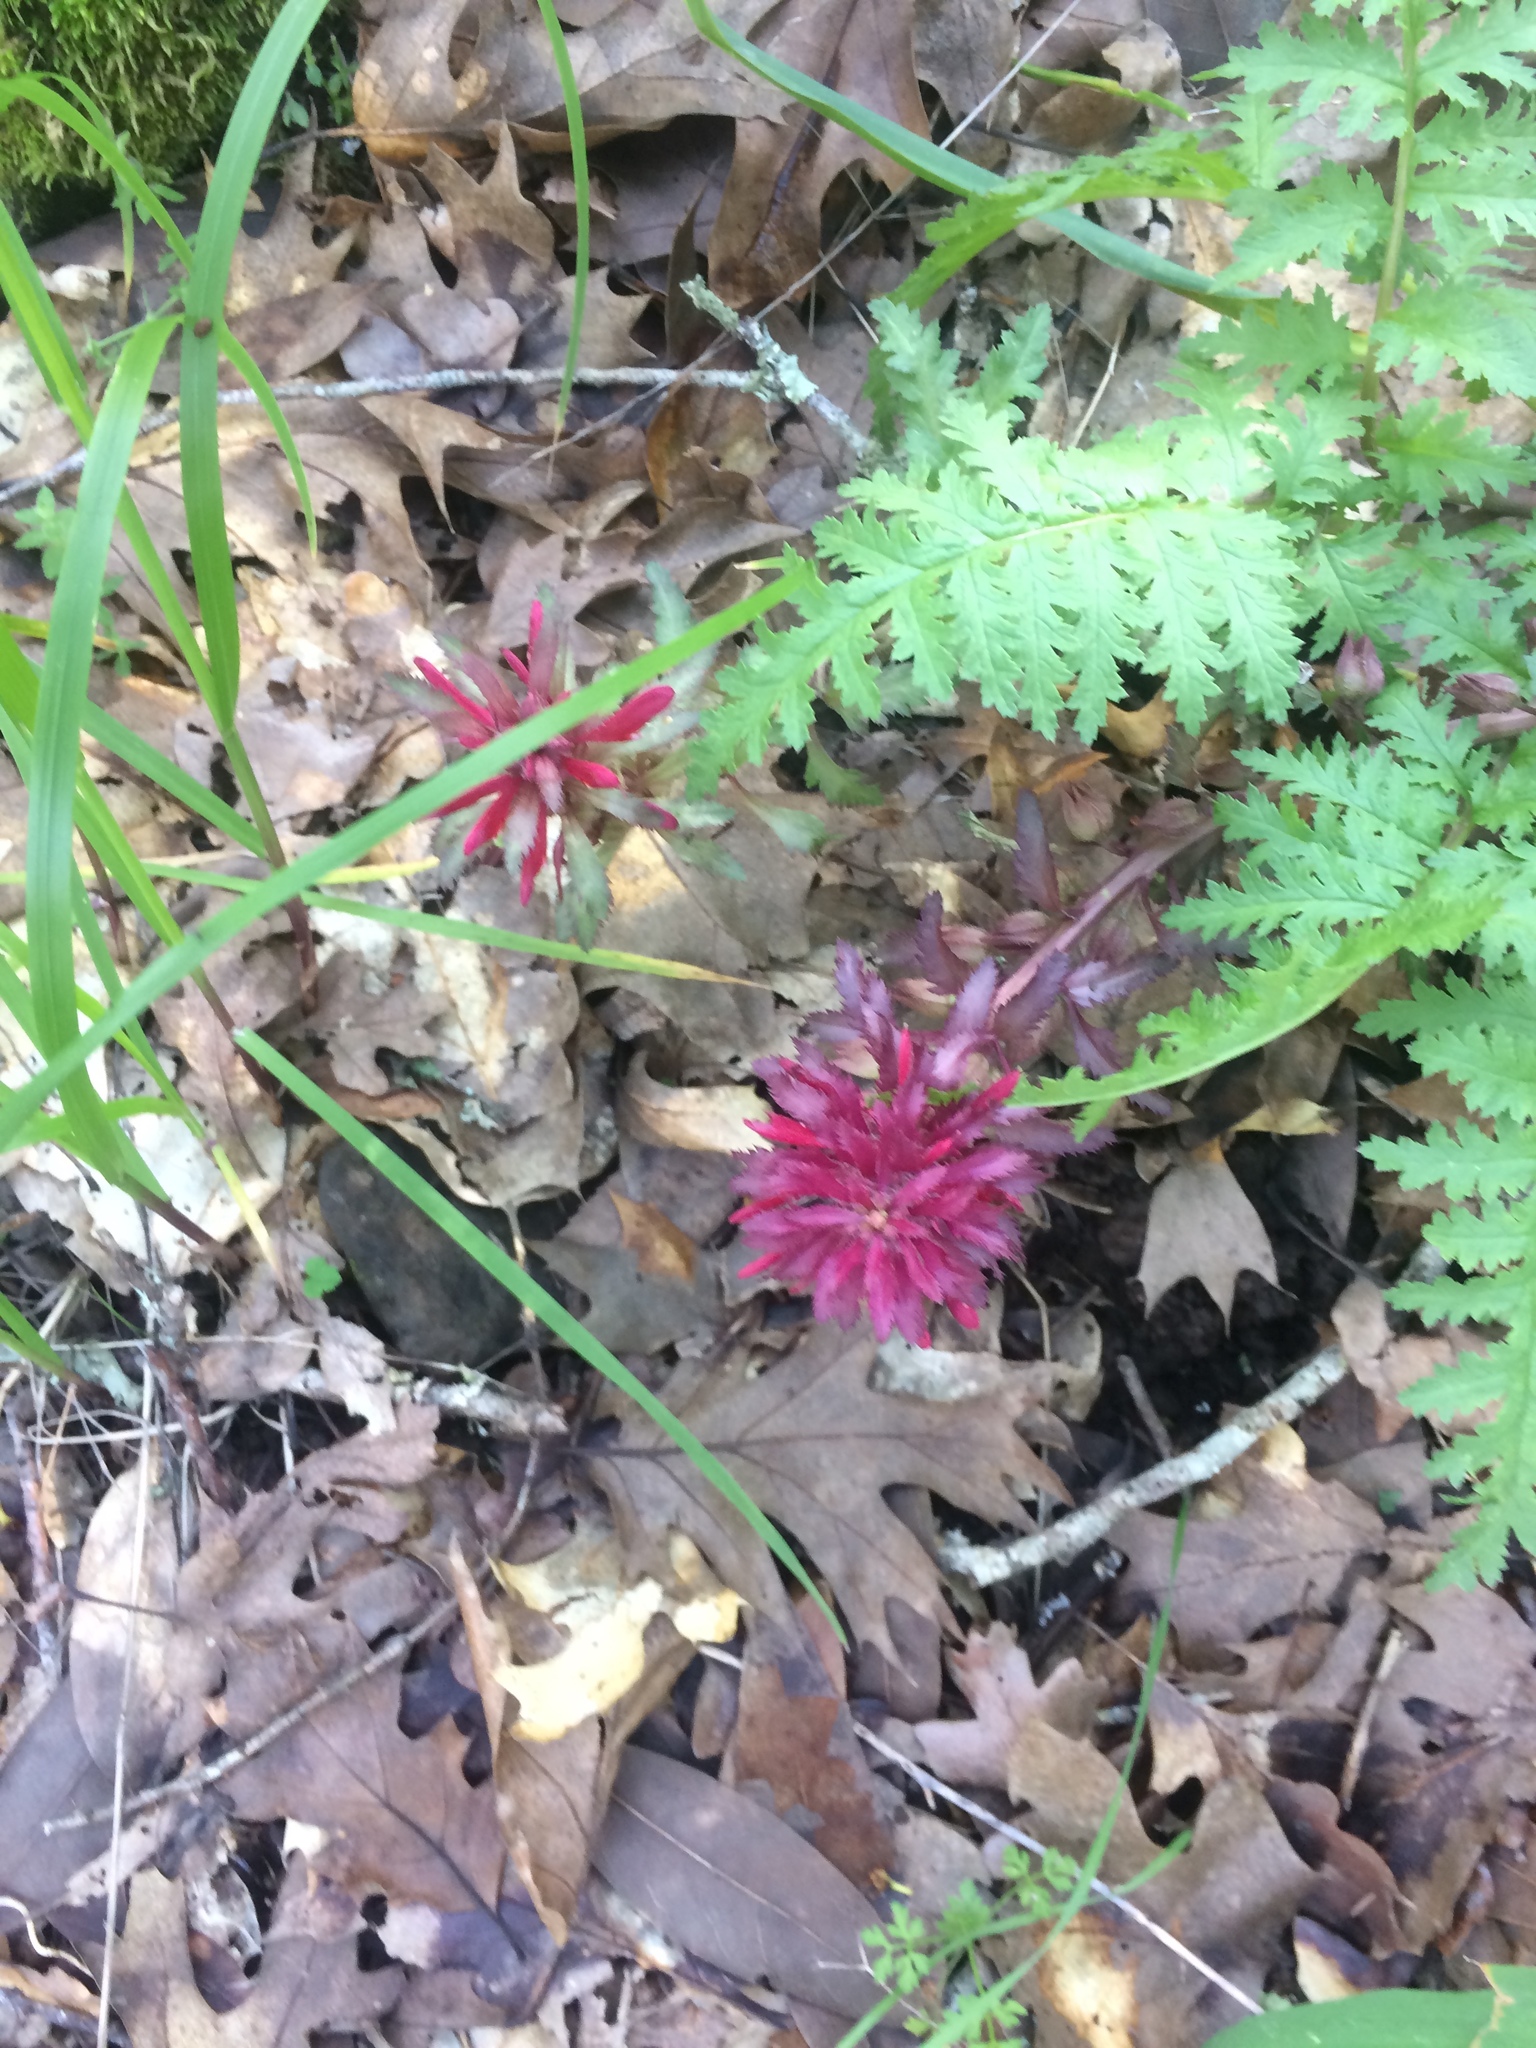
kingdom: Plantae
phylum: Tracheophyta
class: Magnoliopsida
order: Lamiales
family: Orobanchaceae
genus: Pedicularis
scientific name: Pedicularis densiflora
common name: Indian warrior
